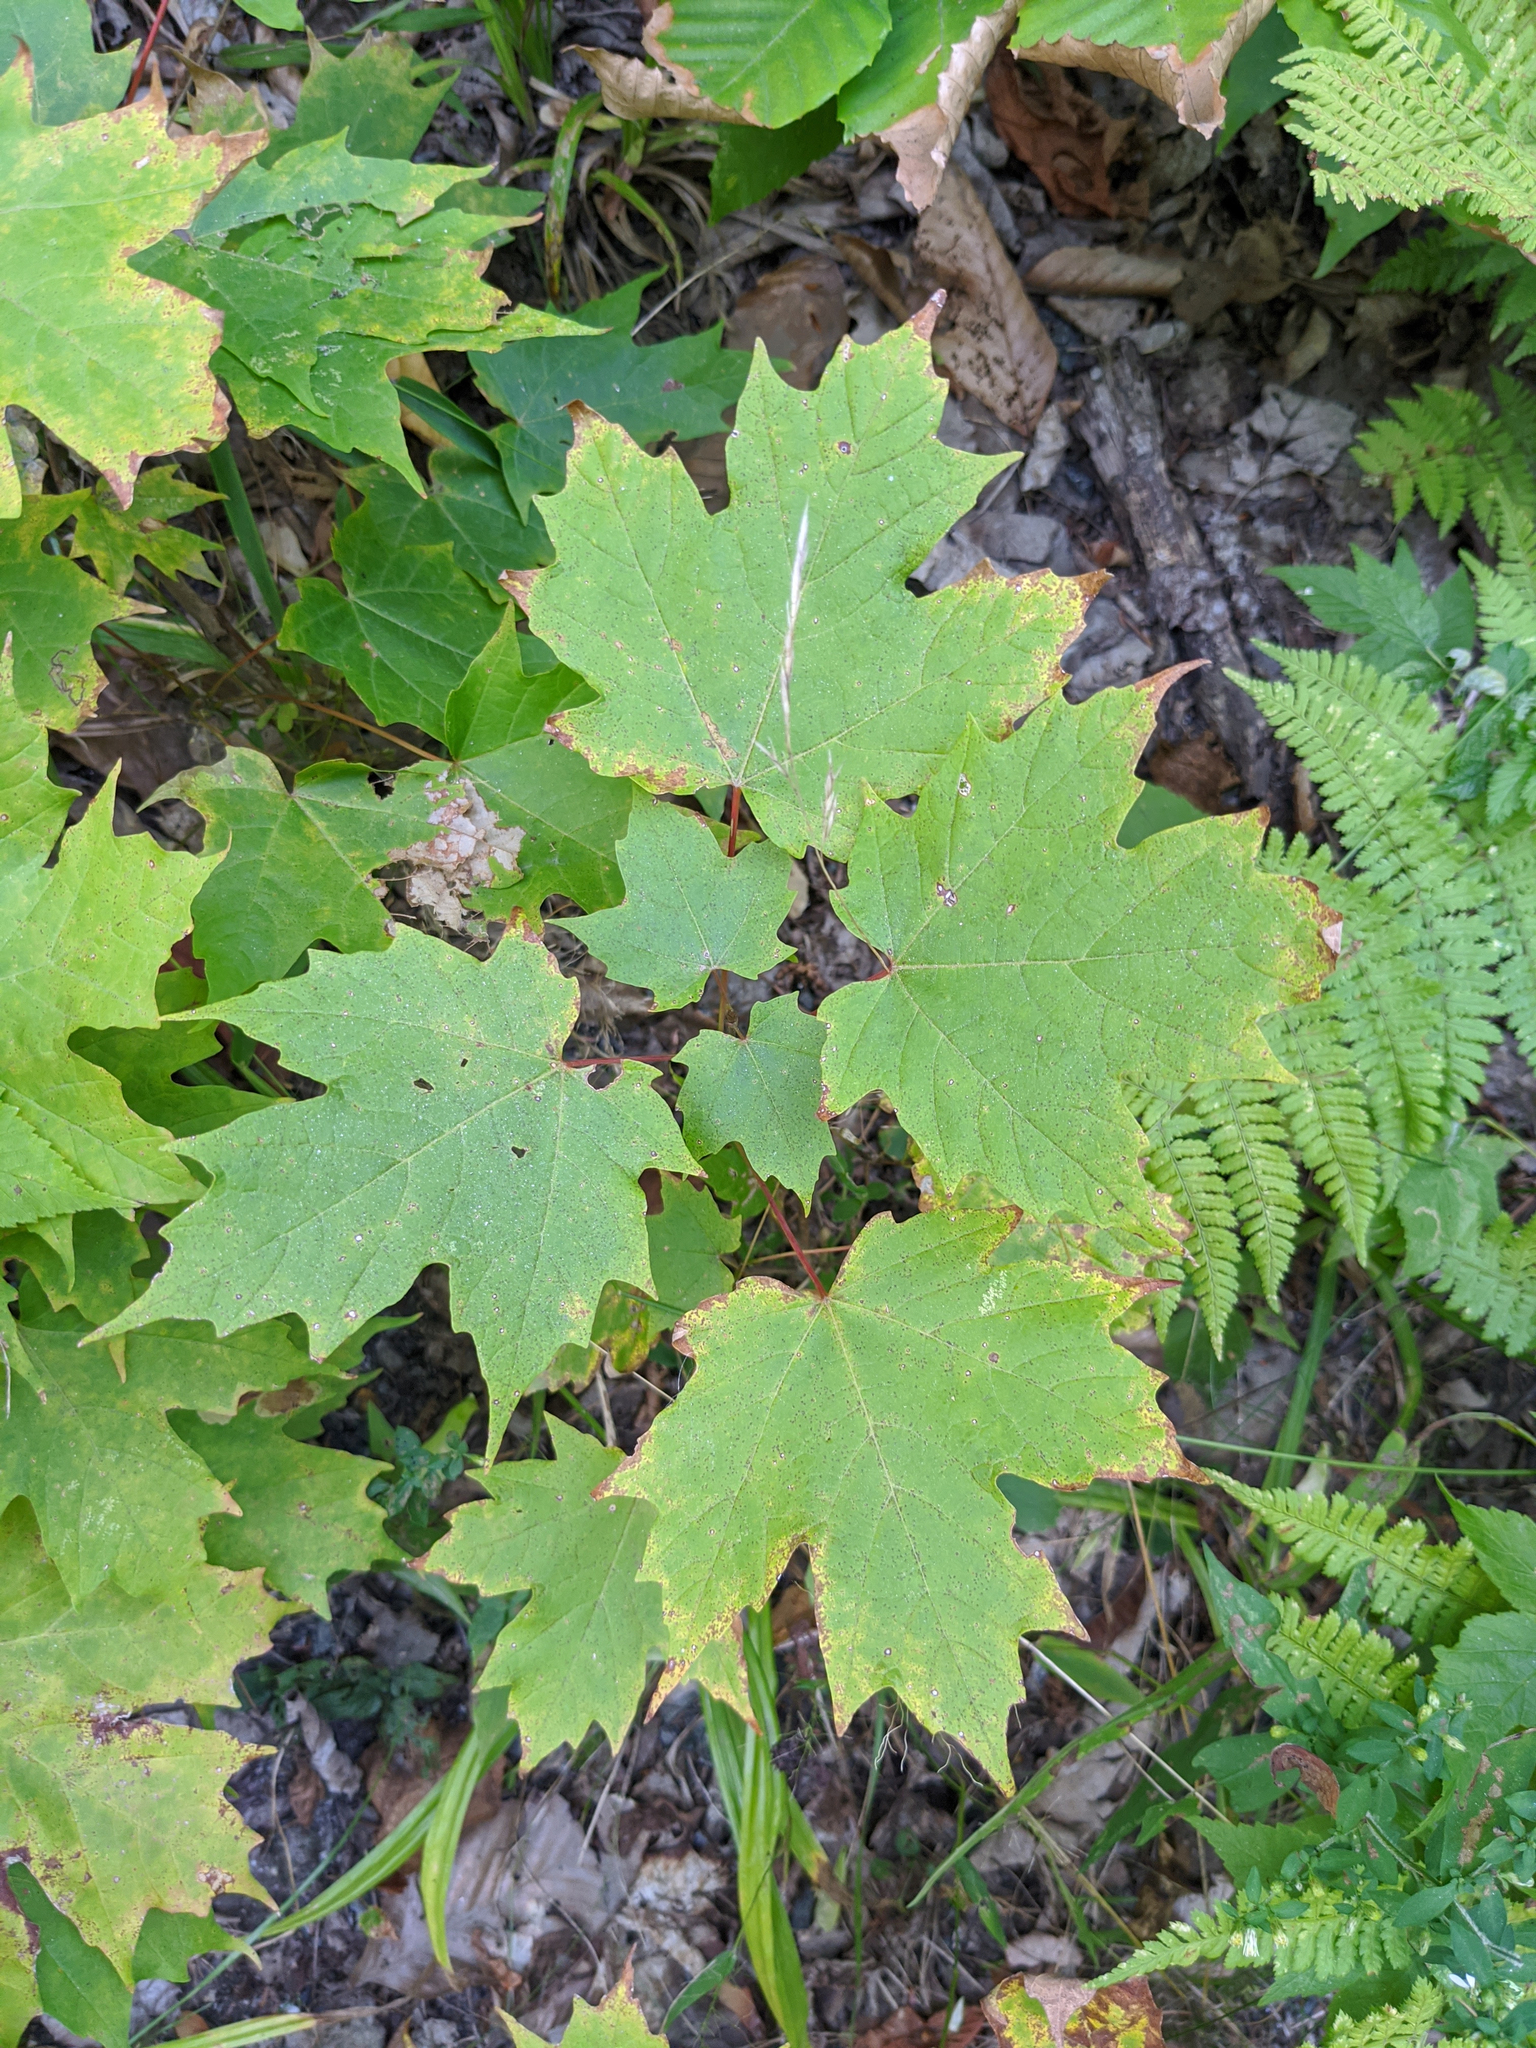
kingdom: Plantae
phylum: Tracheophyta
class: Magnoliopsida
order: Sapindales
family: Sapindaceae
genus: Acer
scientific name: Acer saccharum
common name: Sugar maple
